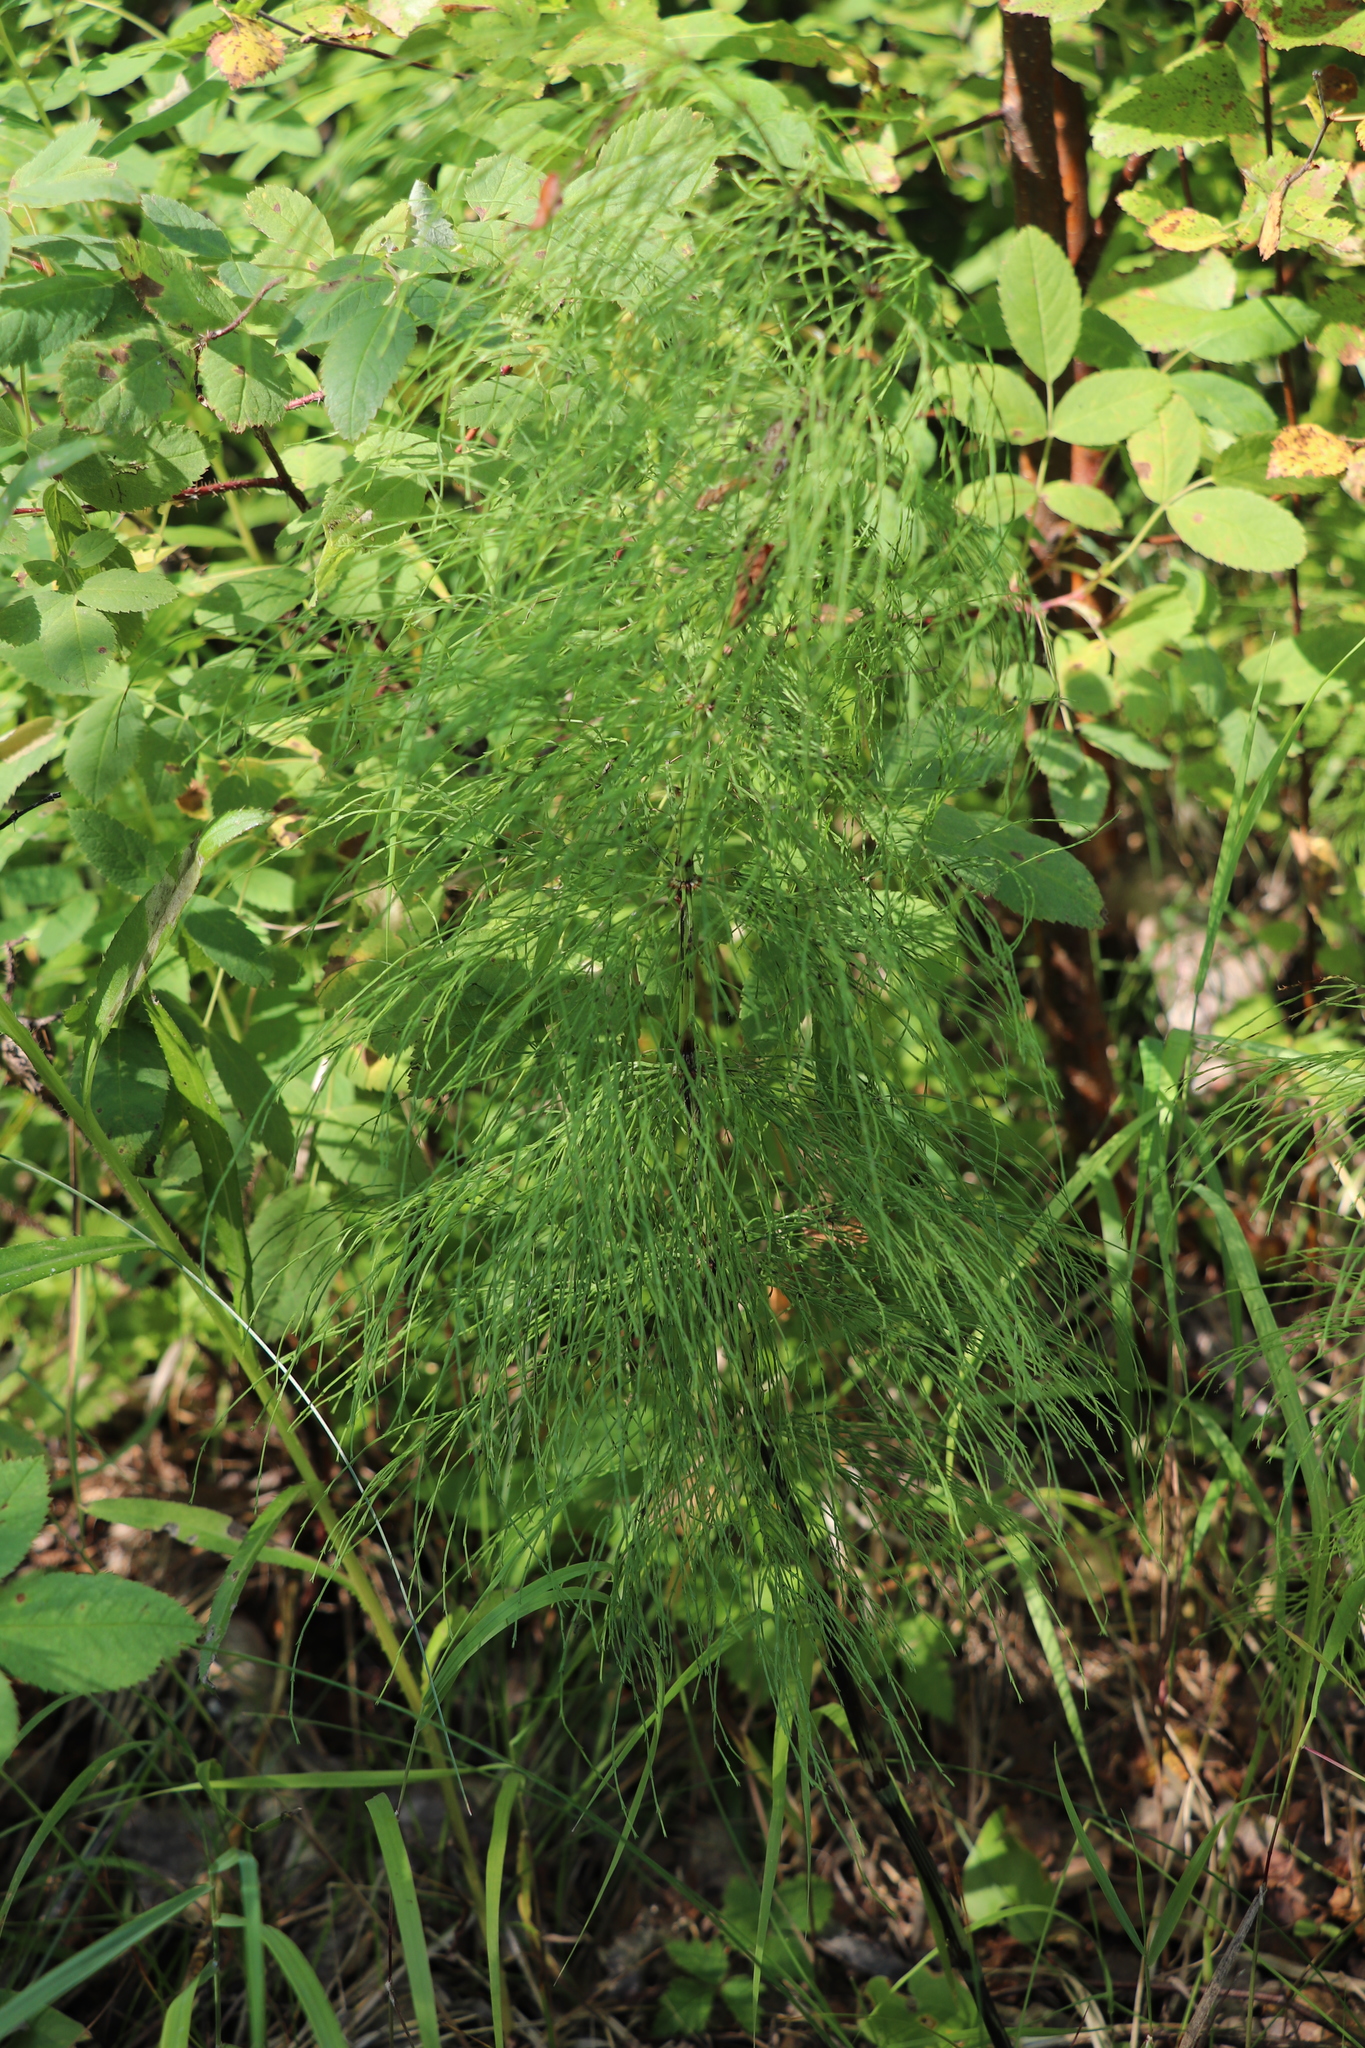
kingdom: Plantae
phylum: Tracheophyta
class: Polypodiopsida
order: Equisetales
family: Equisetaceae
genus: Equisetum
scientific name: Equisetum sylvaticum
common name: Wood horsetail
